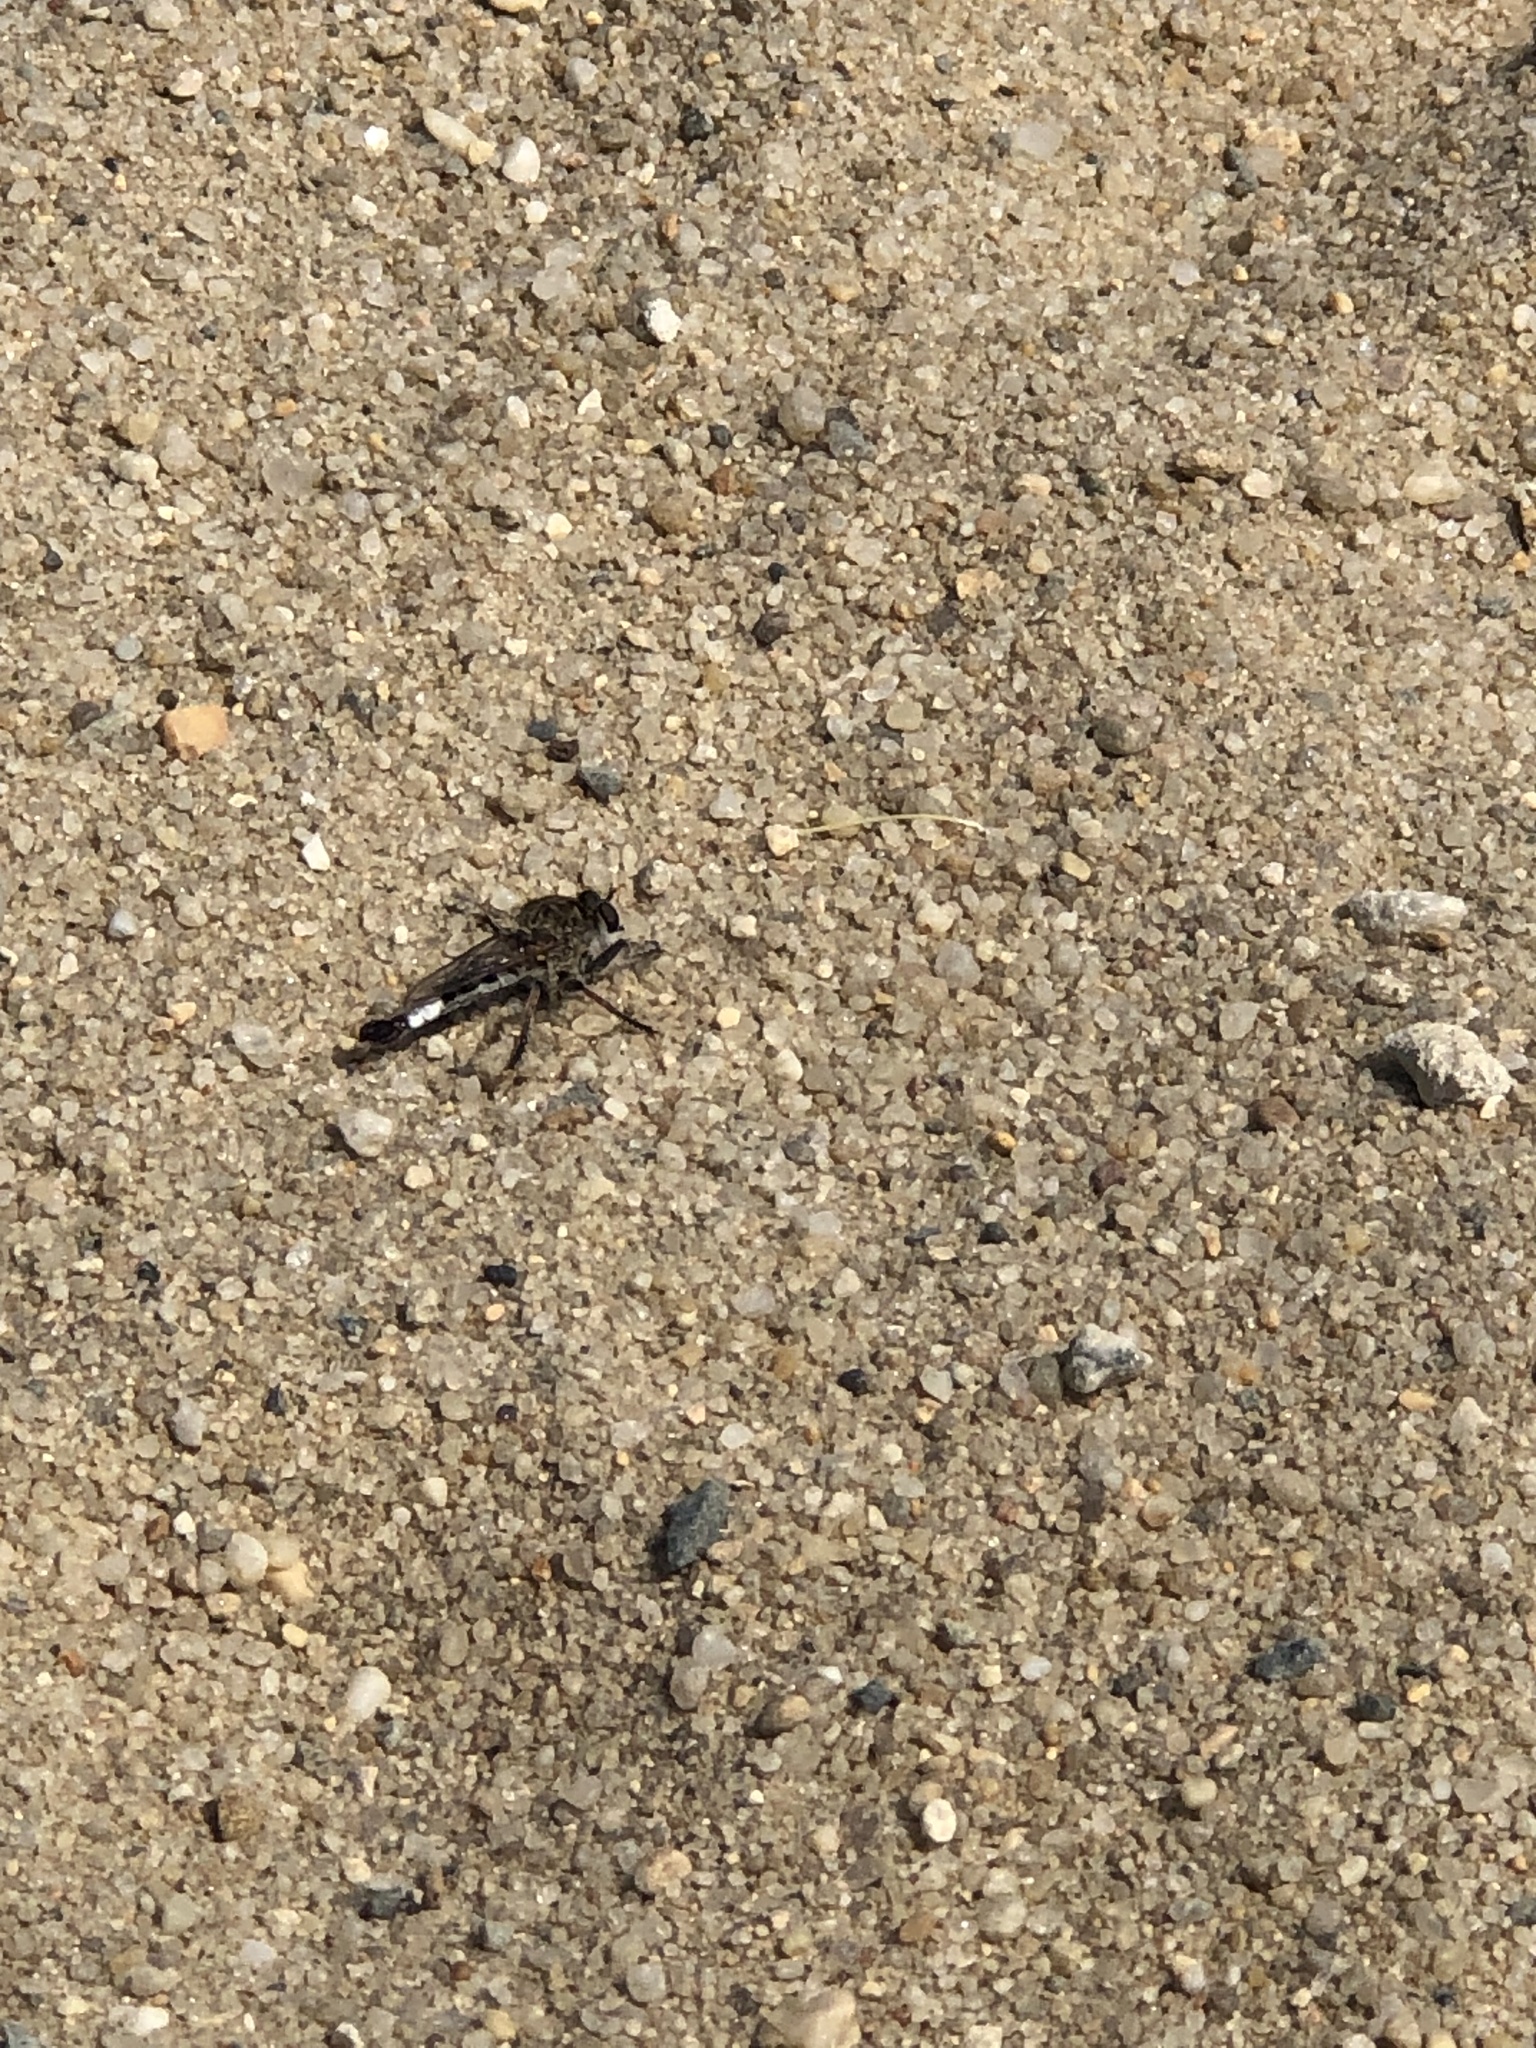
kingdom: Animalia
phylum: Arthropoda
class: Insecta
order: Diptera
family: Asilidae
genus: Efferia
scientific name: Efferia albibarbis
